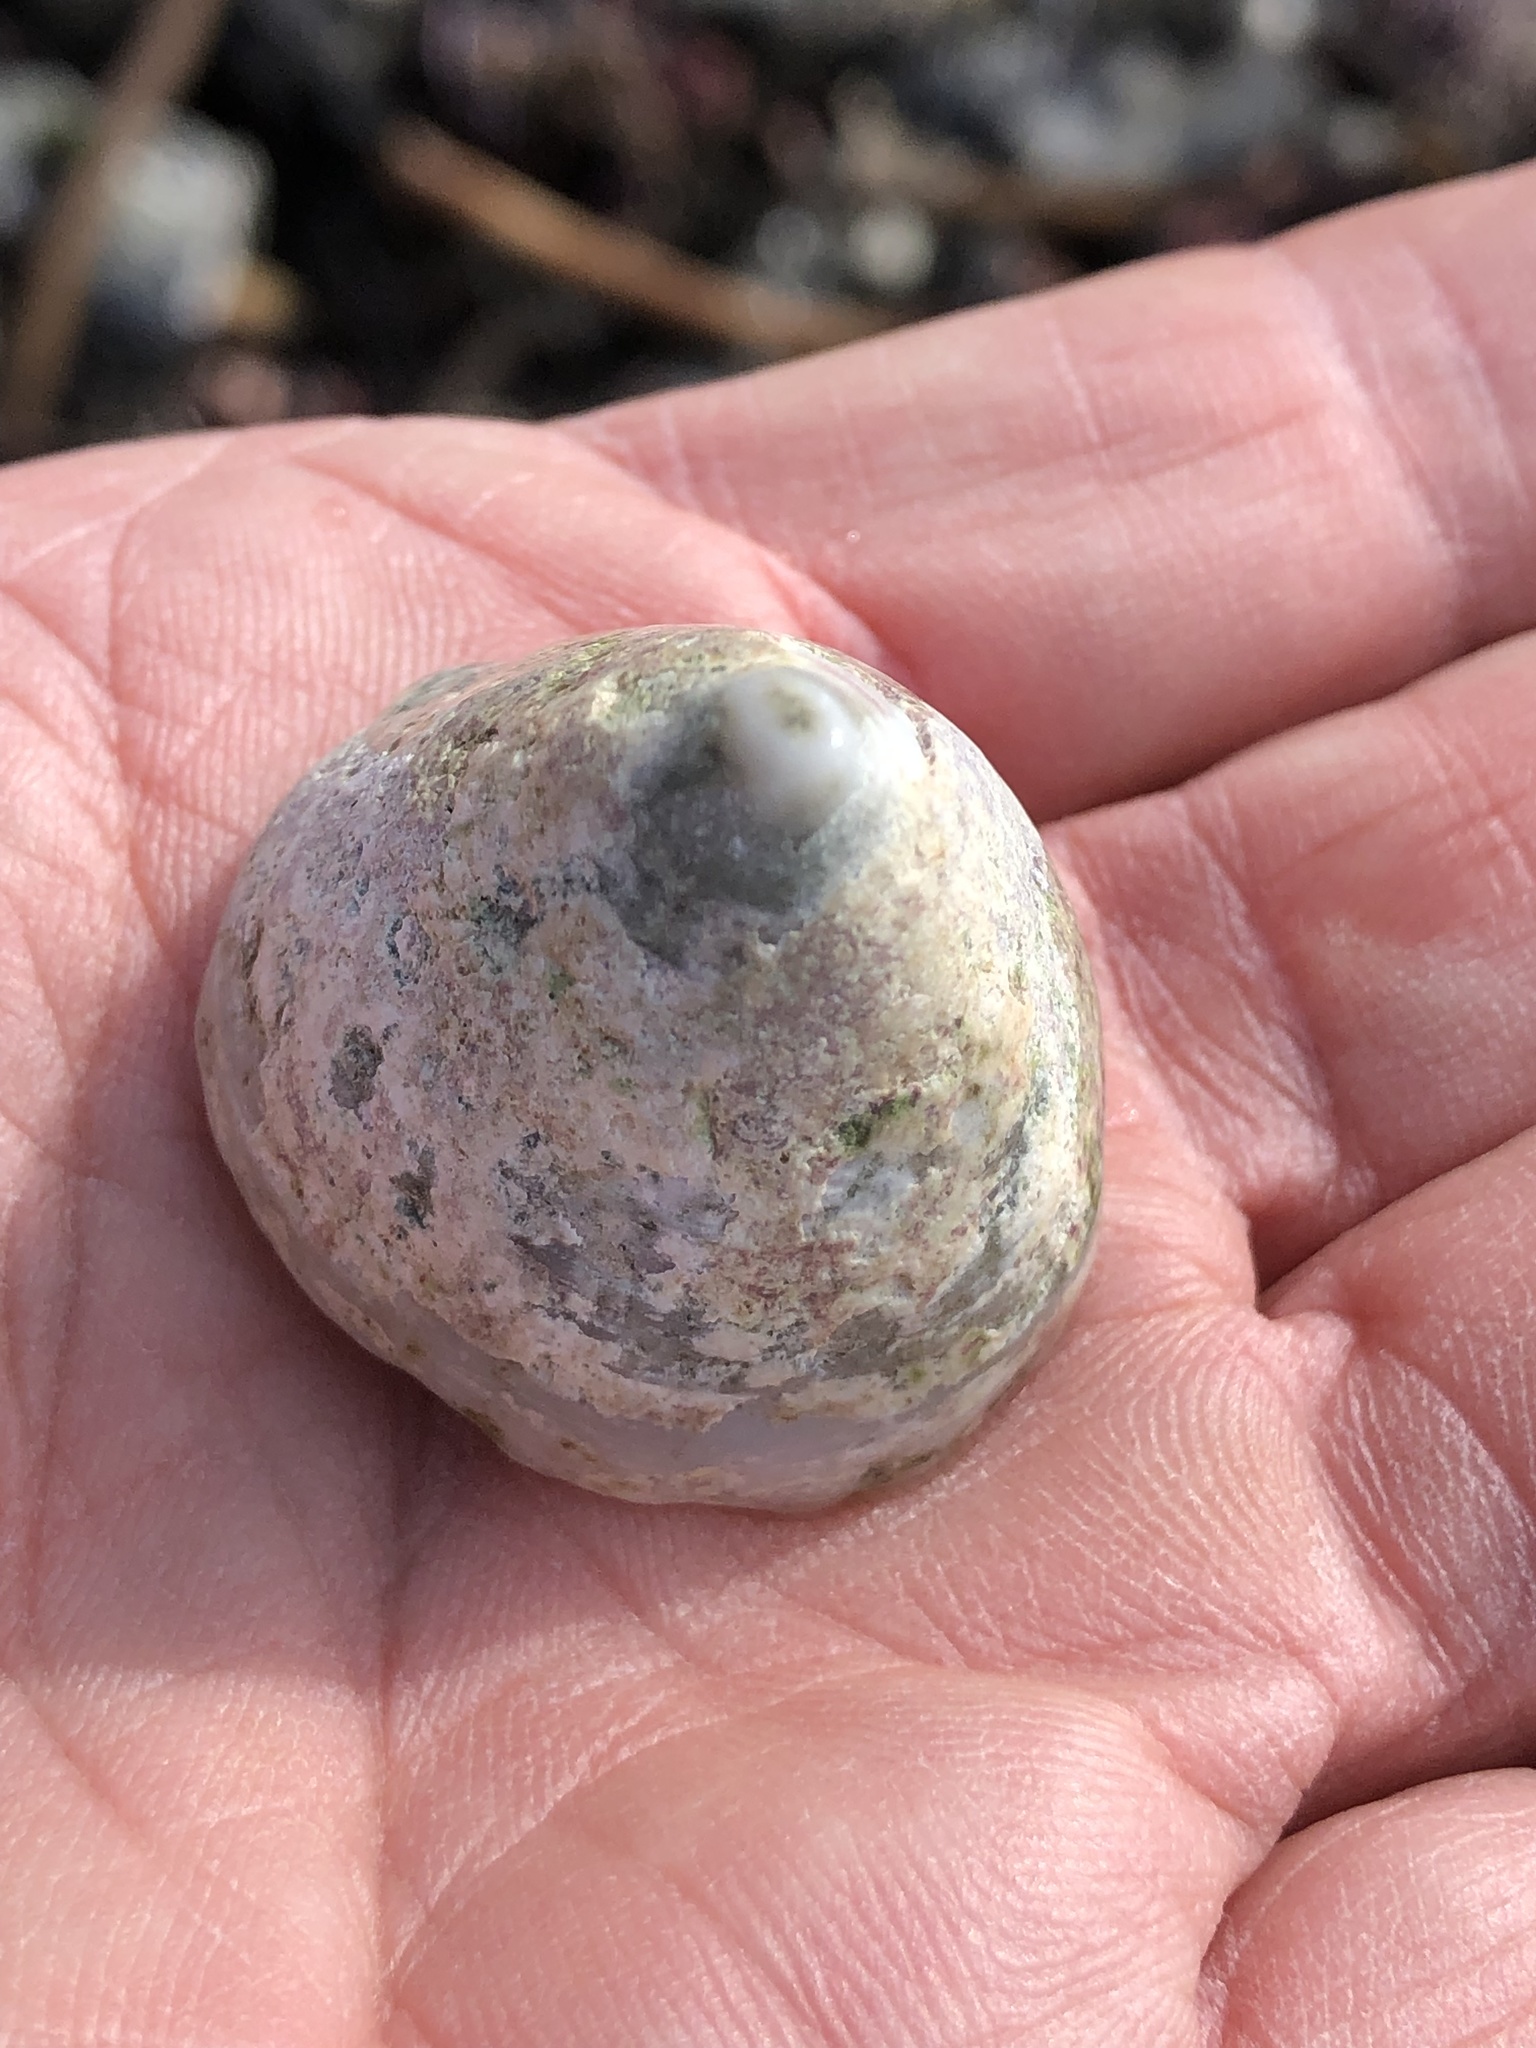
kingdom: Animalia
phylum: Mollusca
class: Gastropoda
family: Acmaeidae
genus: Acmaea
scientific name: Acmaea mitra
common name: Pacific white cap limpet
